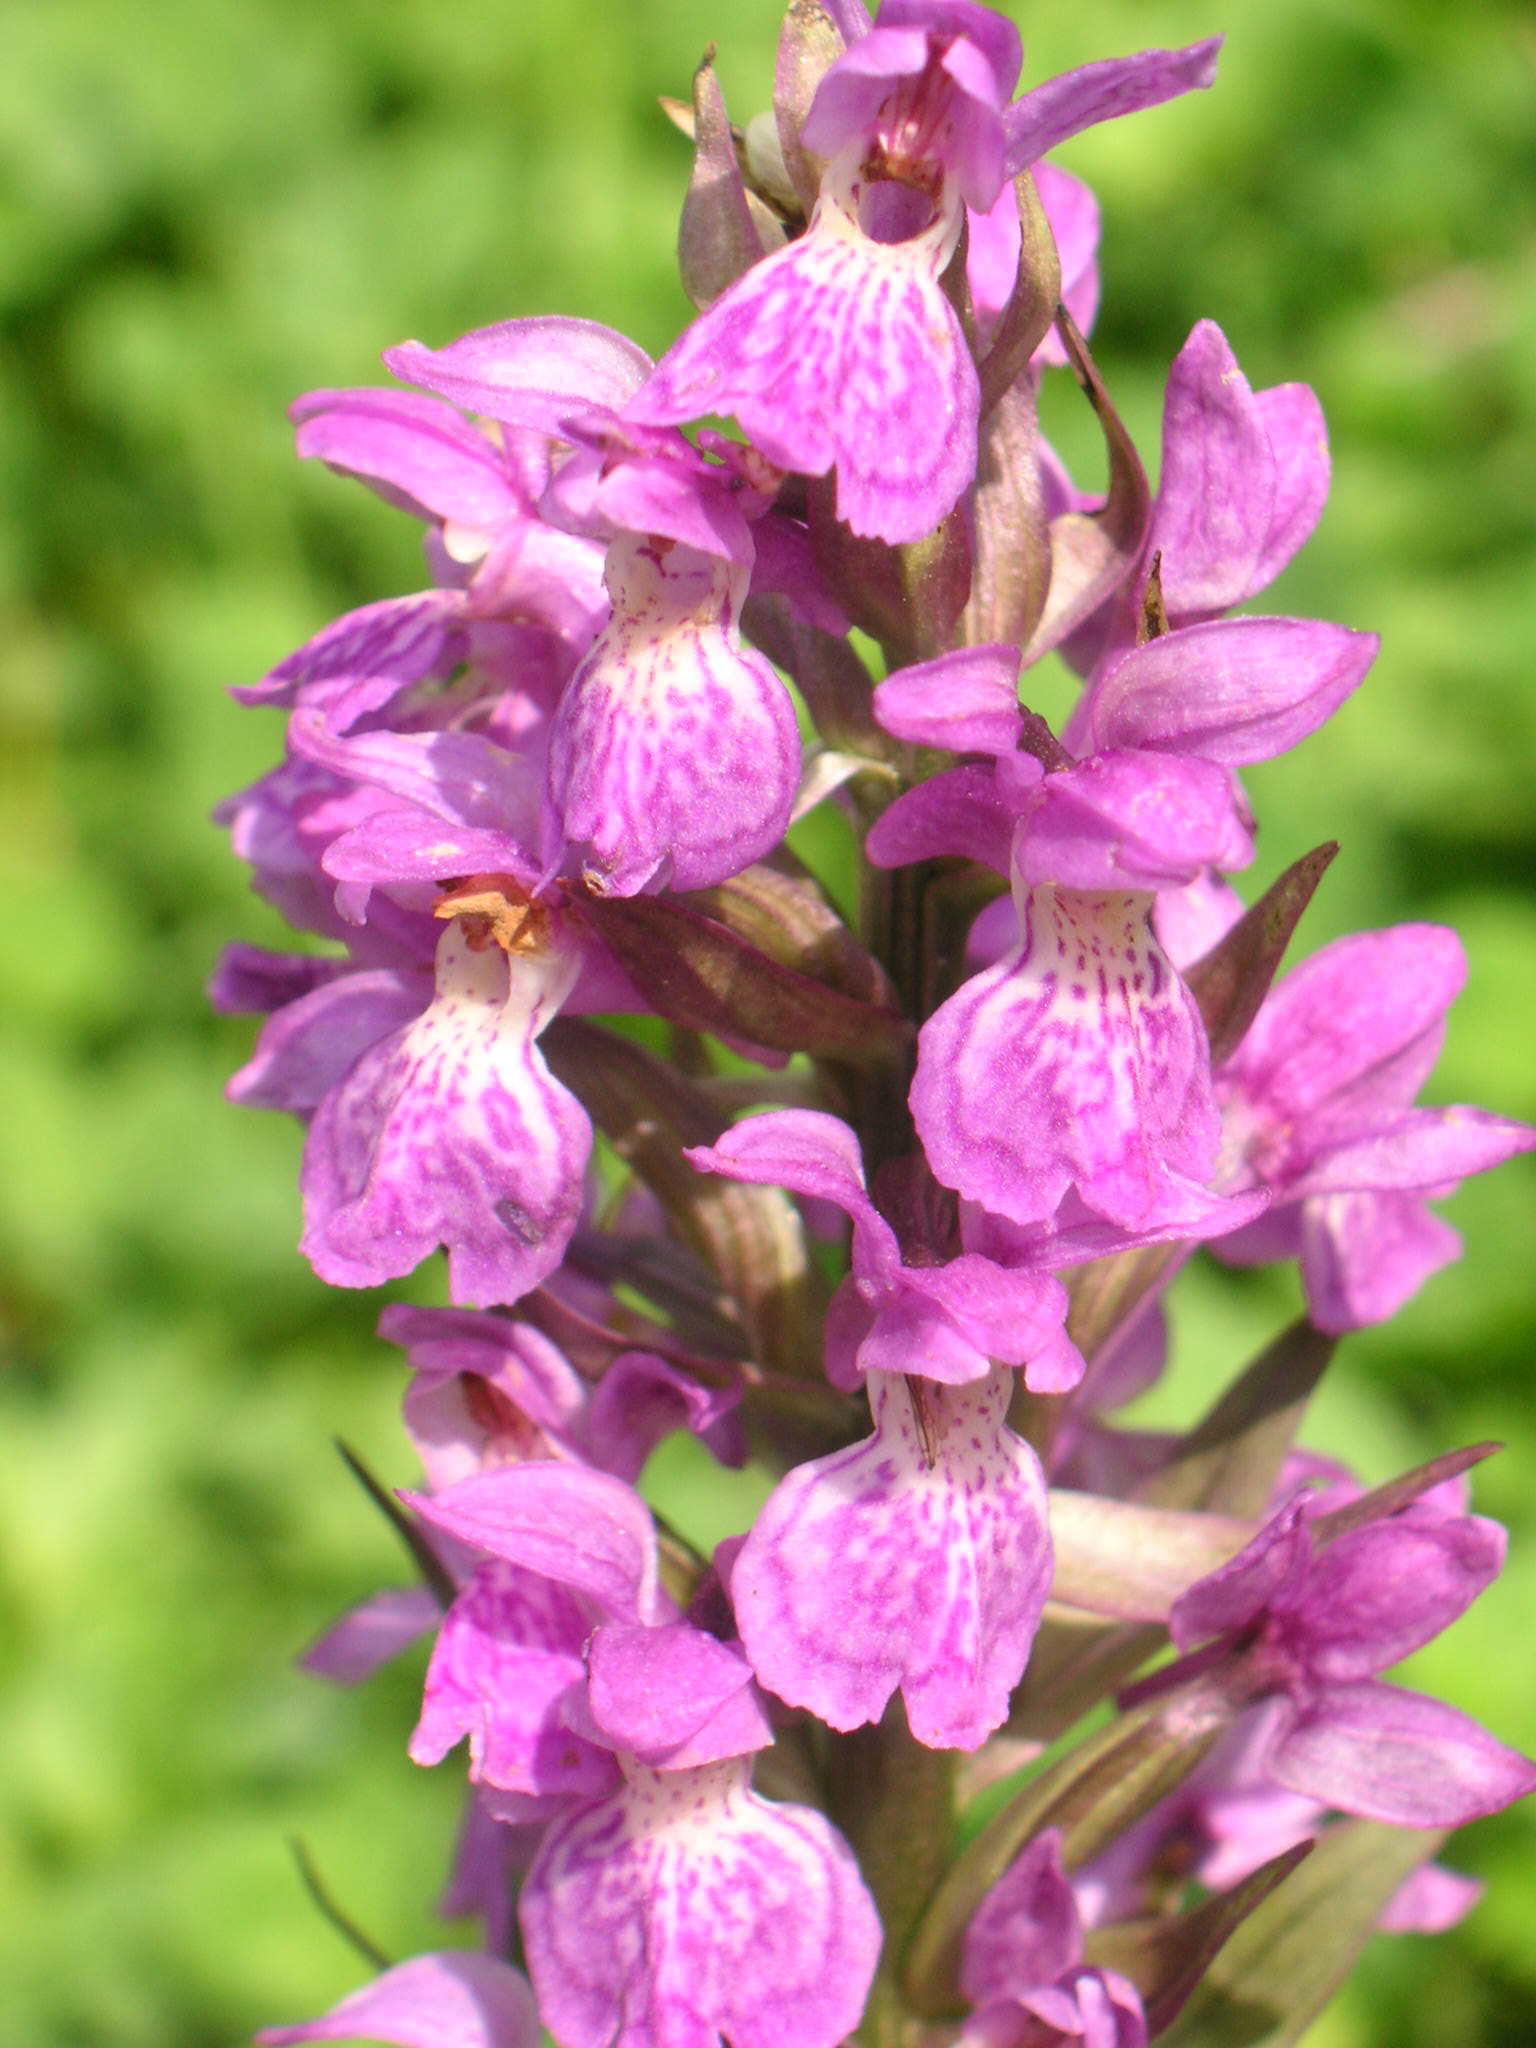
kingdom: Plantae
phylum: Tracheophyta
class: Liliopsida
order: Asparagales
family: Orchidaceae
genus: Dactylorhiza
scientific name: Dactylorhiza majalis
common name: Marsh orchid
